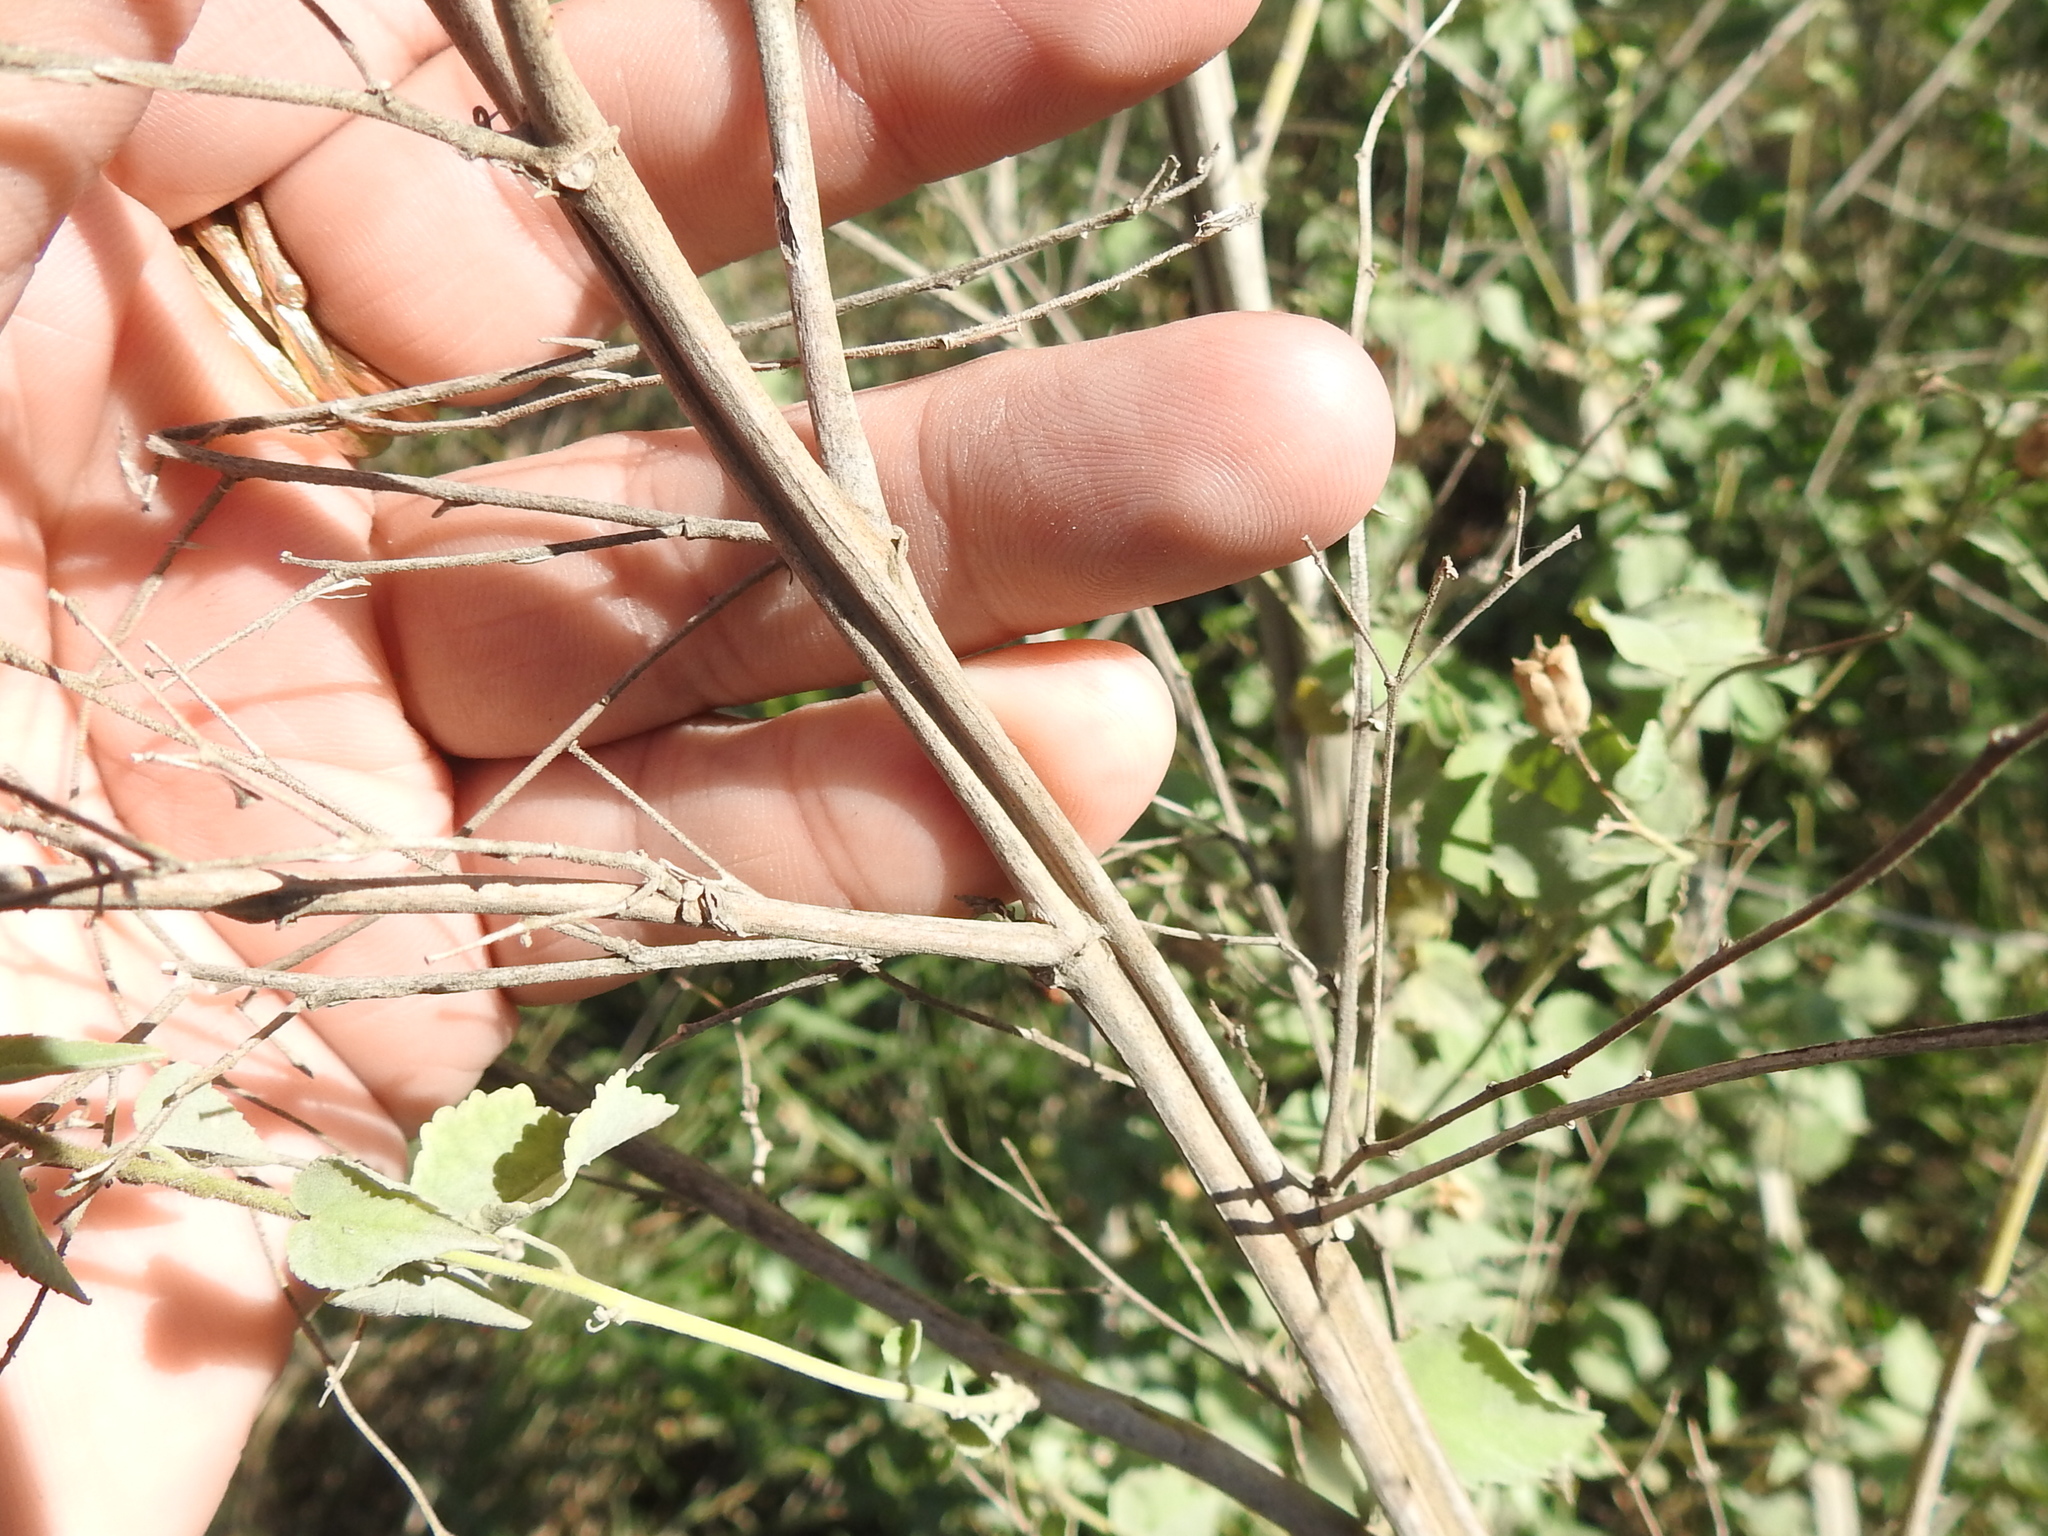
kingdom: Plantae
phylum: Tracheophyta
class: Magnoliopsida
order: Malvales
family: Malvaceae
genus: Abutilon
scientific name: Abutilon trisulcatum
